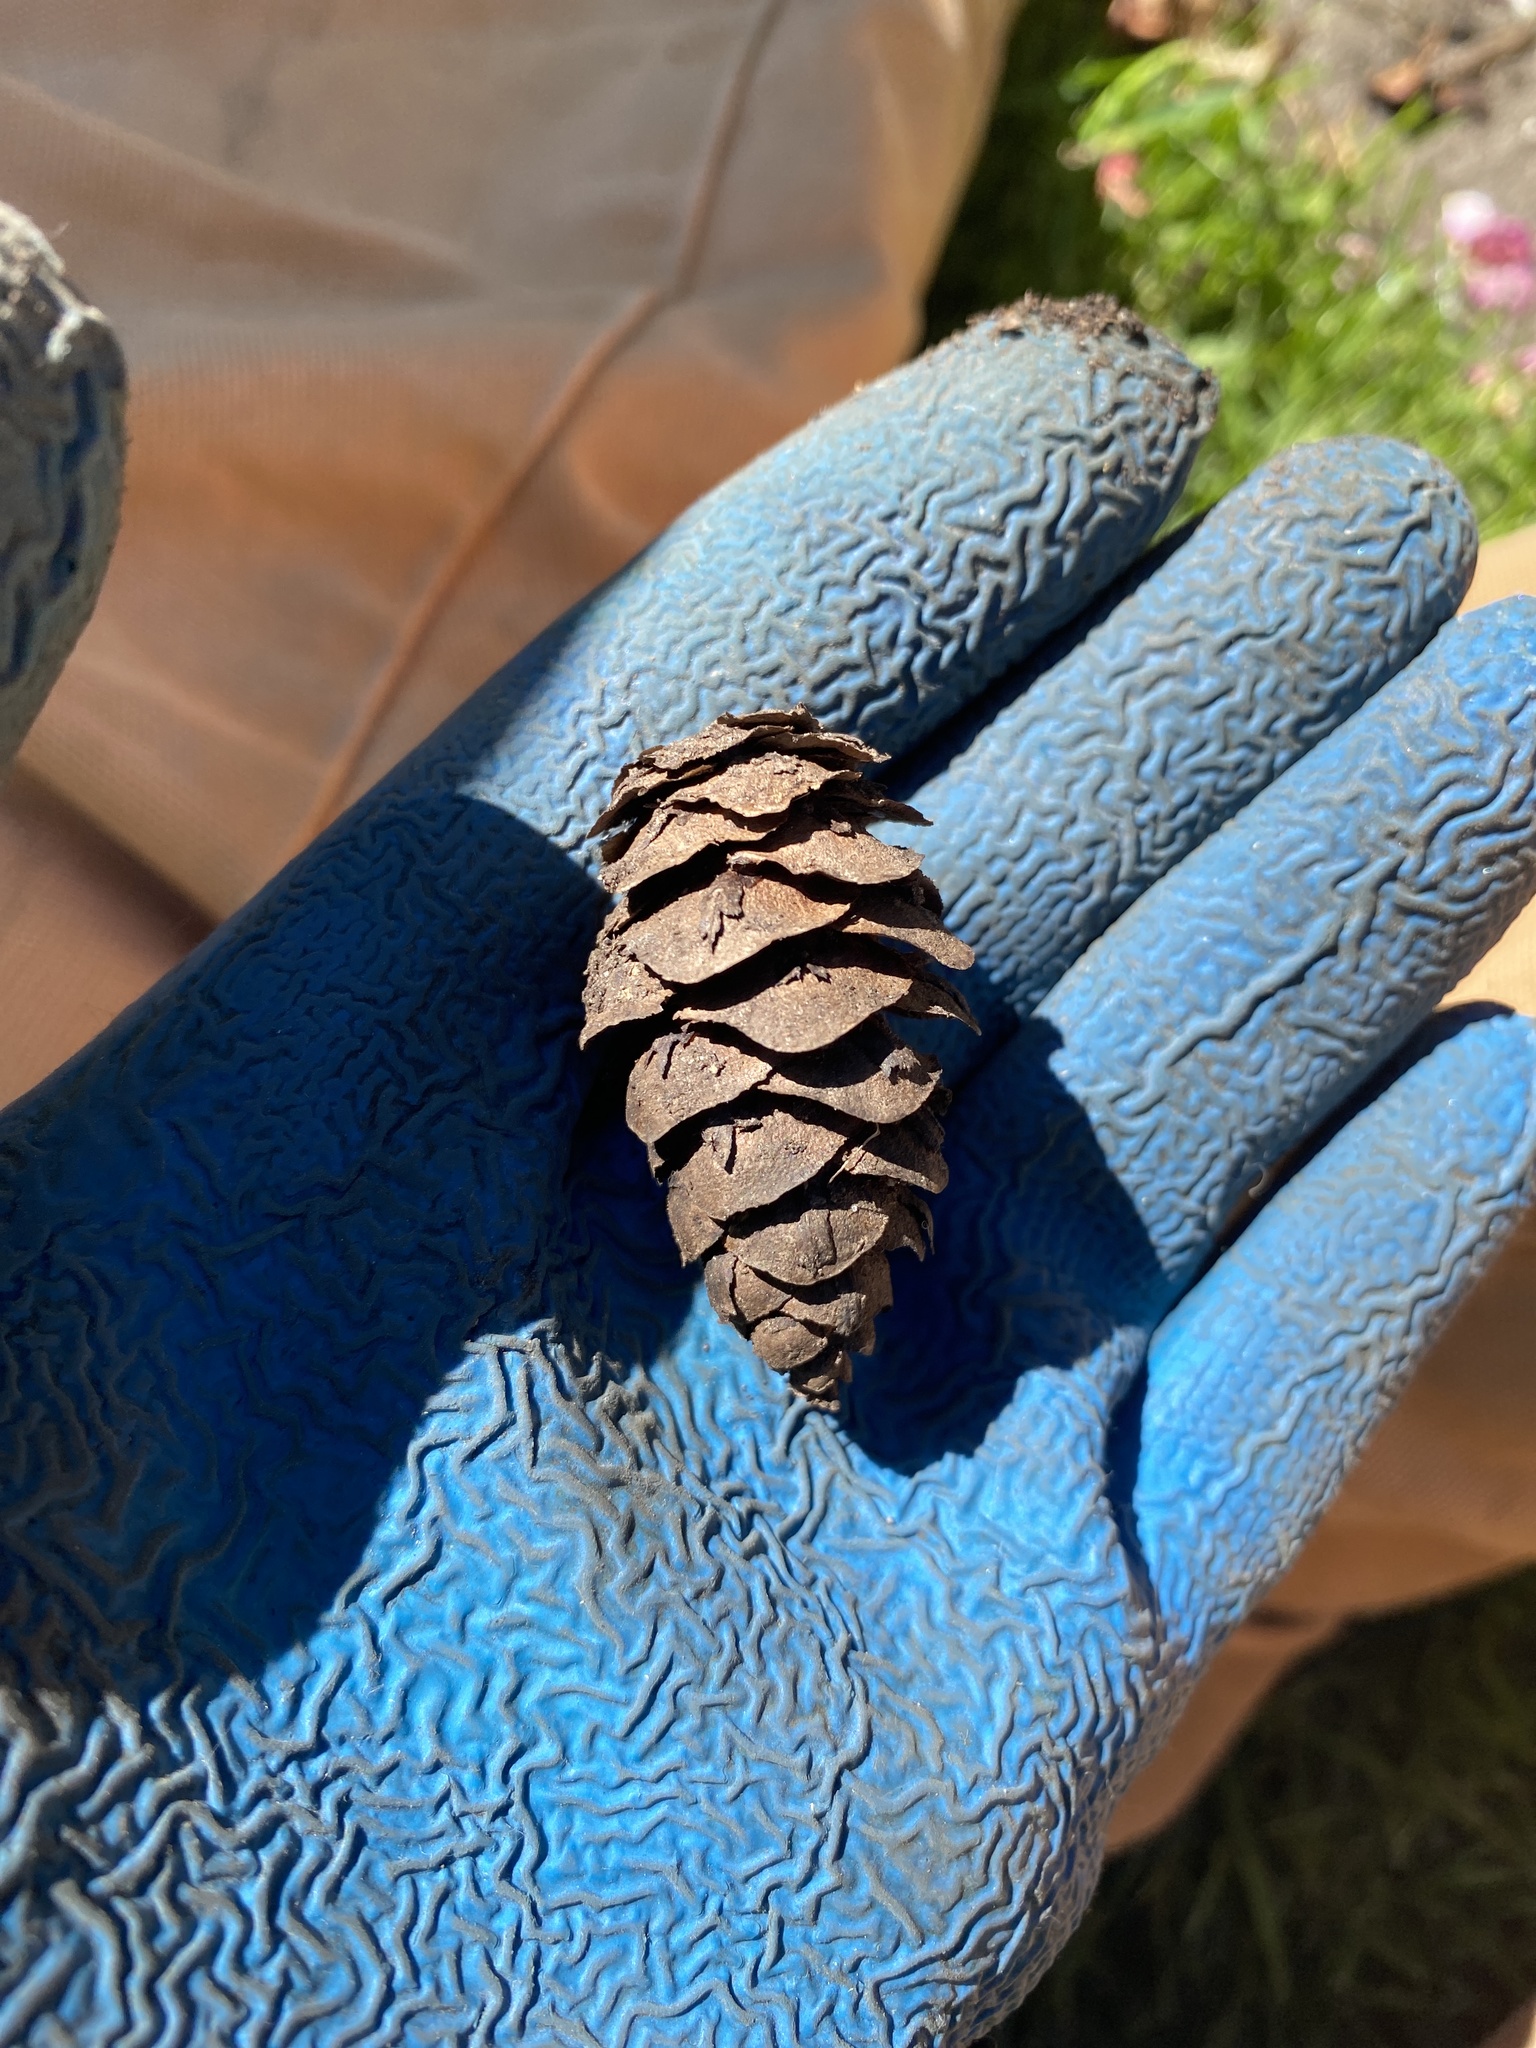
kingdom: Plantae
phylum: Tracheophyta
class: Pinopsida
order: Pinales
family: Pinaceae
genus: Pseudotsuga
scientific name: Pseudotsuga menziesii
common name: Douglas fir
